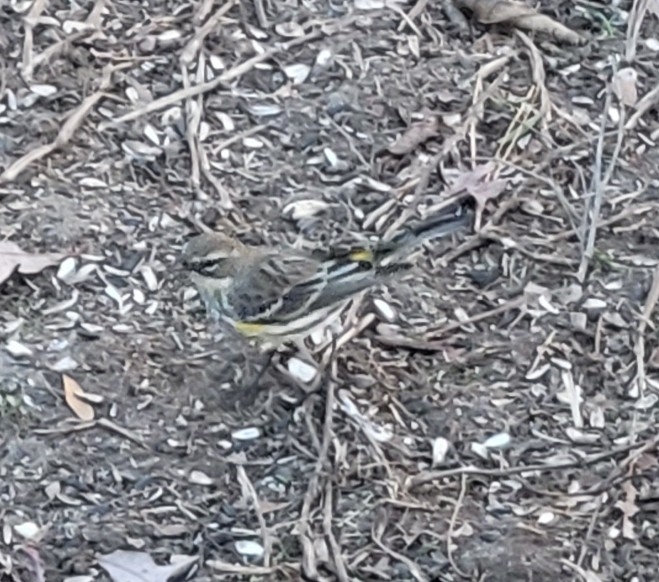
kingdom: Animalia
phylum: Chordata
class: Aves
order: Passeriformes
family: Parulidae
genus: Setophaga
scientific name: Setophaga coronata
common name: Myrtle warbler
